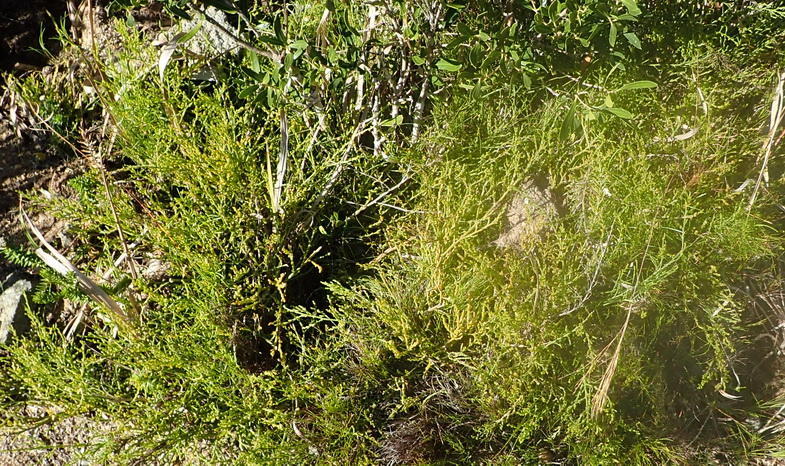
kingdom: Plantae
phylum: Tracheophyta
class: Magnoliopsida
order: Santalales
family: Thesiaceae
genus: Thesium
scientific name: Thesium fragile
